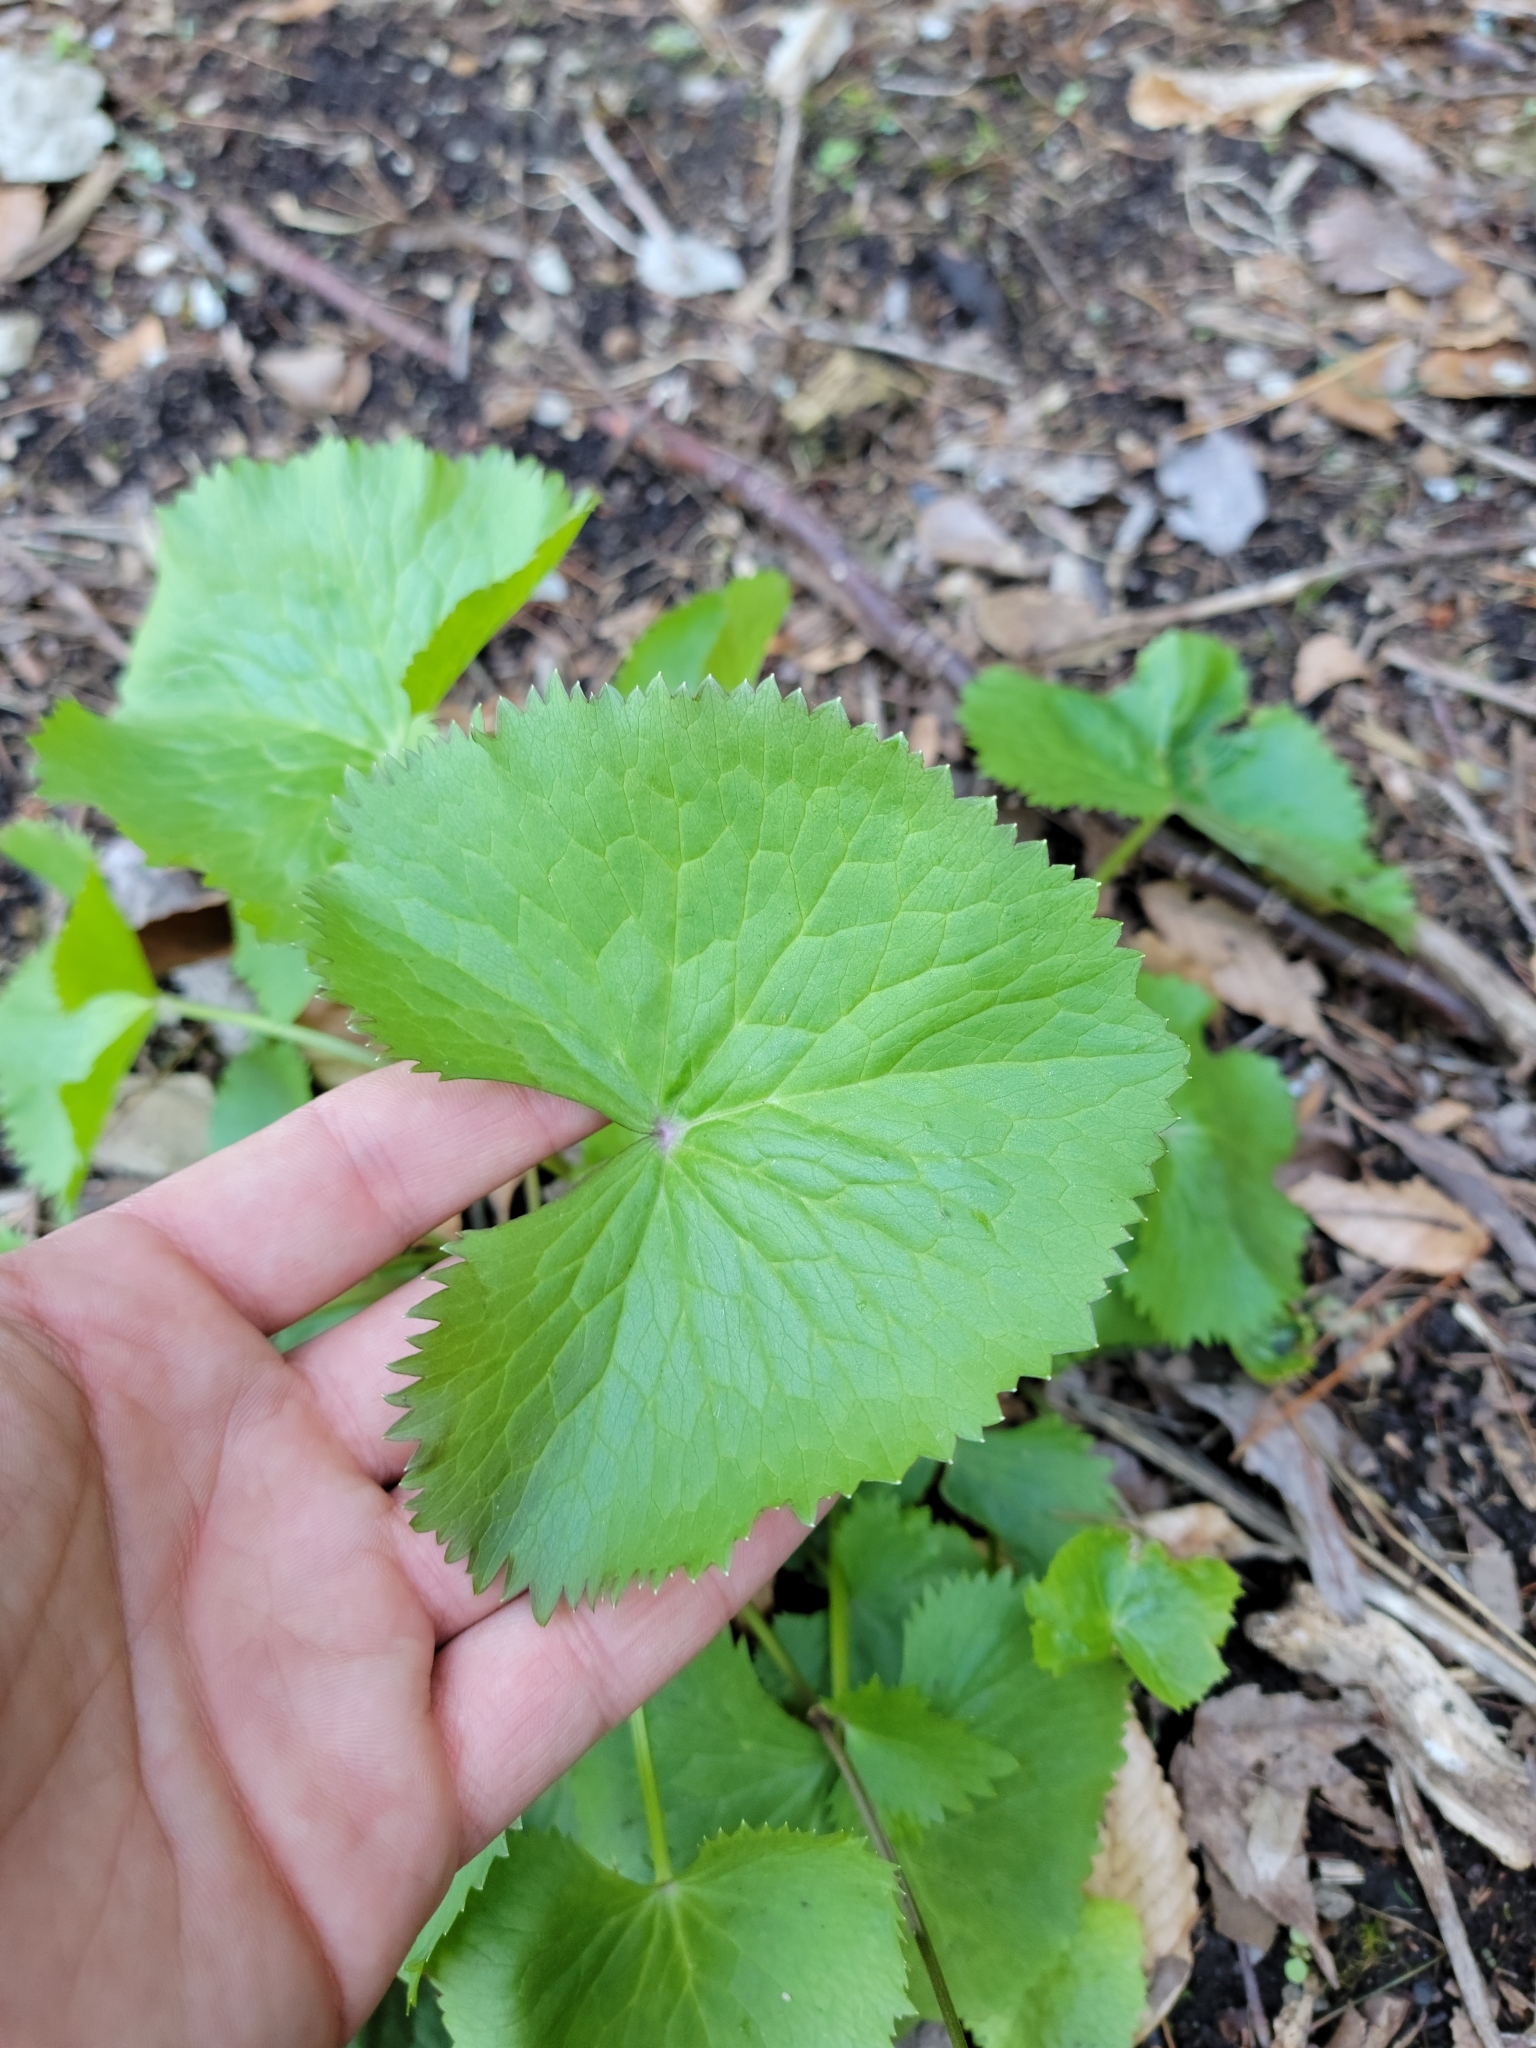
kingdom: Plantae
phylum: Tracheophyta
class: Magnoliopsida
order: Ranunculales
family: Ranunculaceae
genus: Caltha
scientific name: Caltha palustris
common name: Marsh marigold
